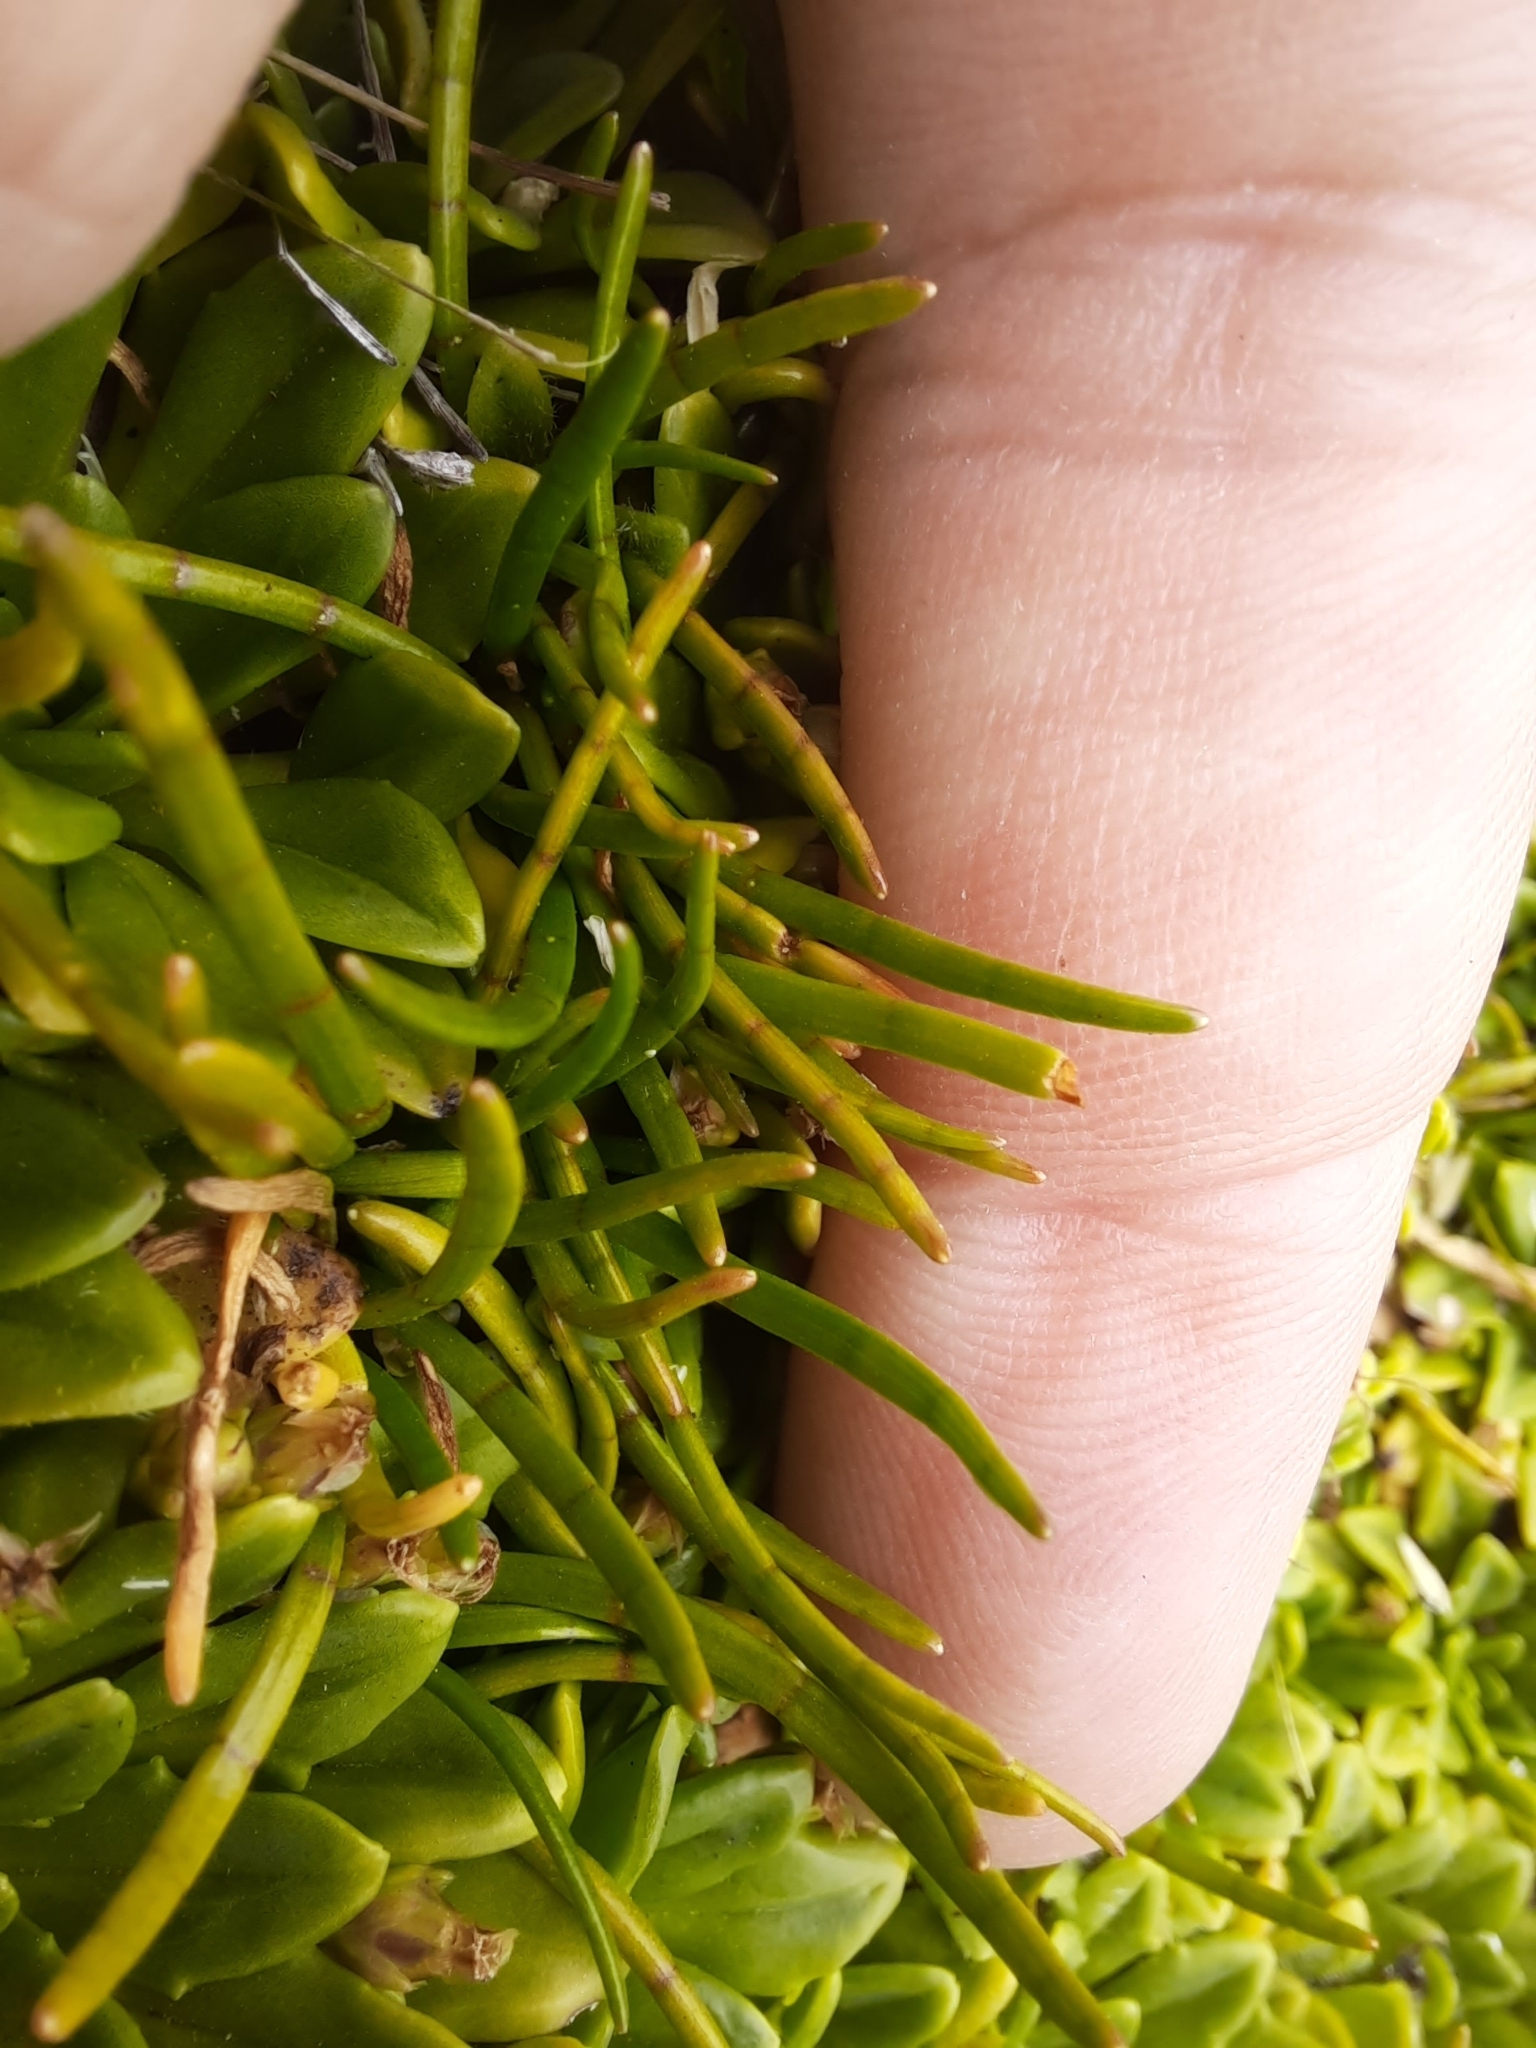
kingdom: Plantae
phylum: Tracheophyta
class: Magnoliopsida
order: Apiales
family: Apiaceae
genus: Lilaeopsis
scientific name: Lilaeopsis novae-zelandiae
